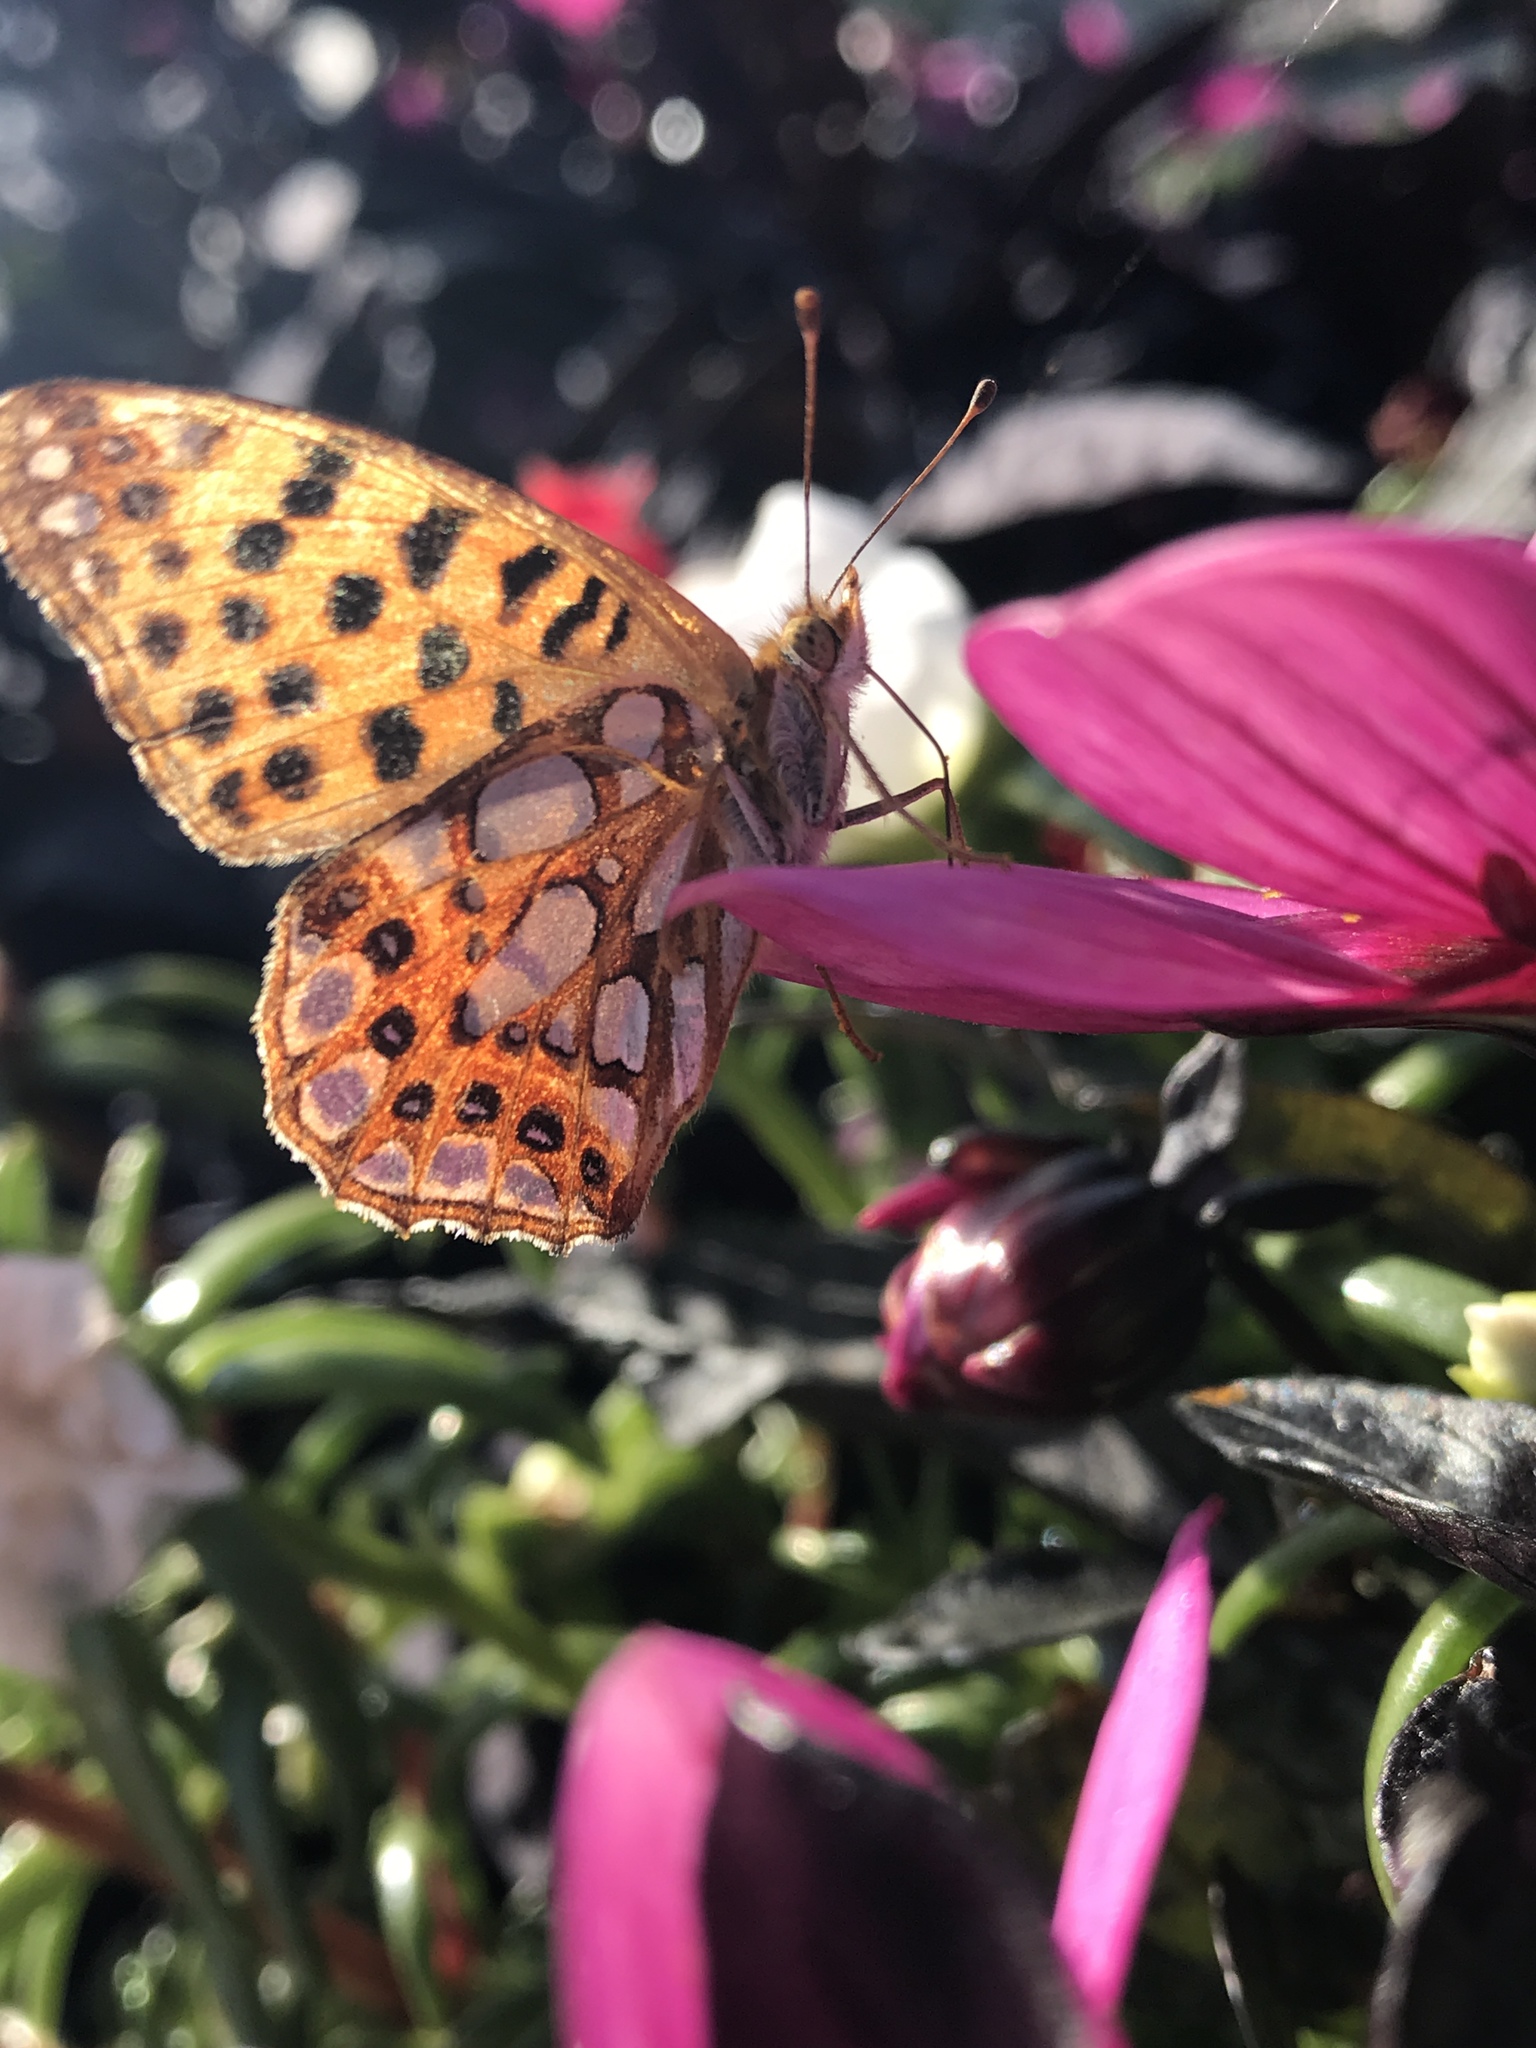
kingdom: Animalia
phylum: Arthropoda
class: Insecta
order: Lepidoptera
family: Nymphalidae
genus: Issoria
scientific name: Issoria lathonia
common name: Queen of spain fritillary
